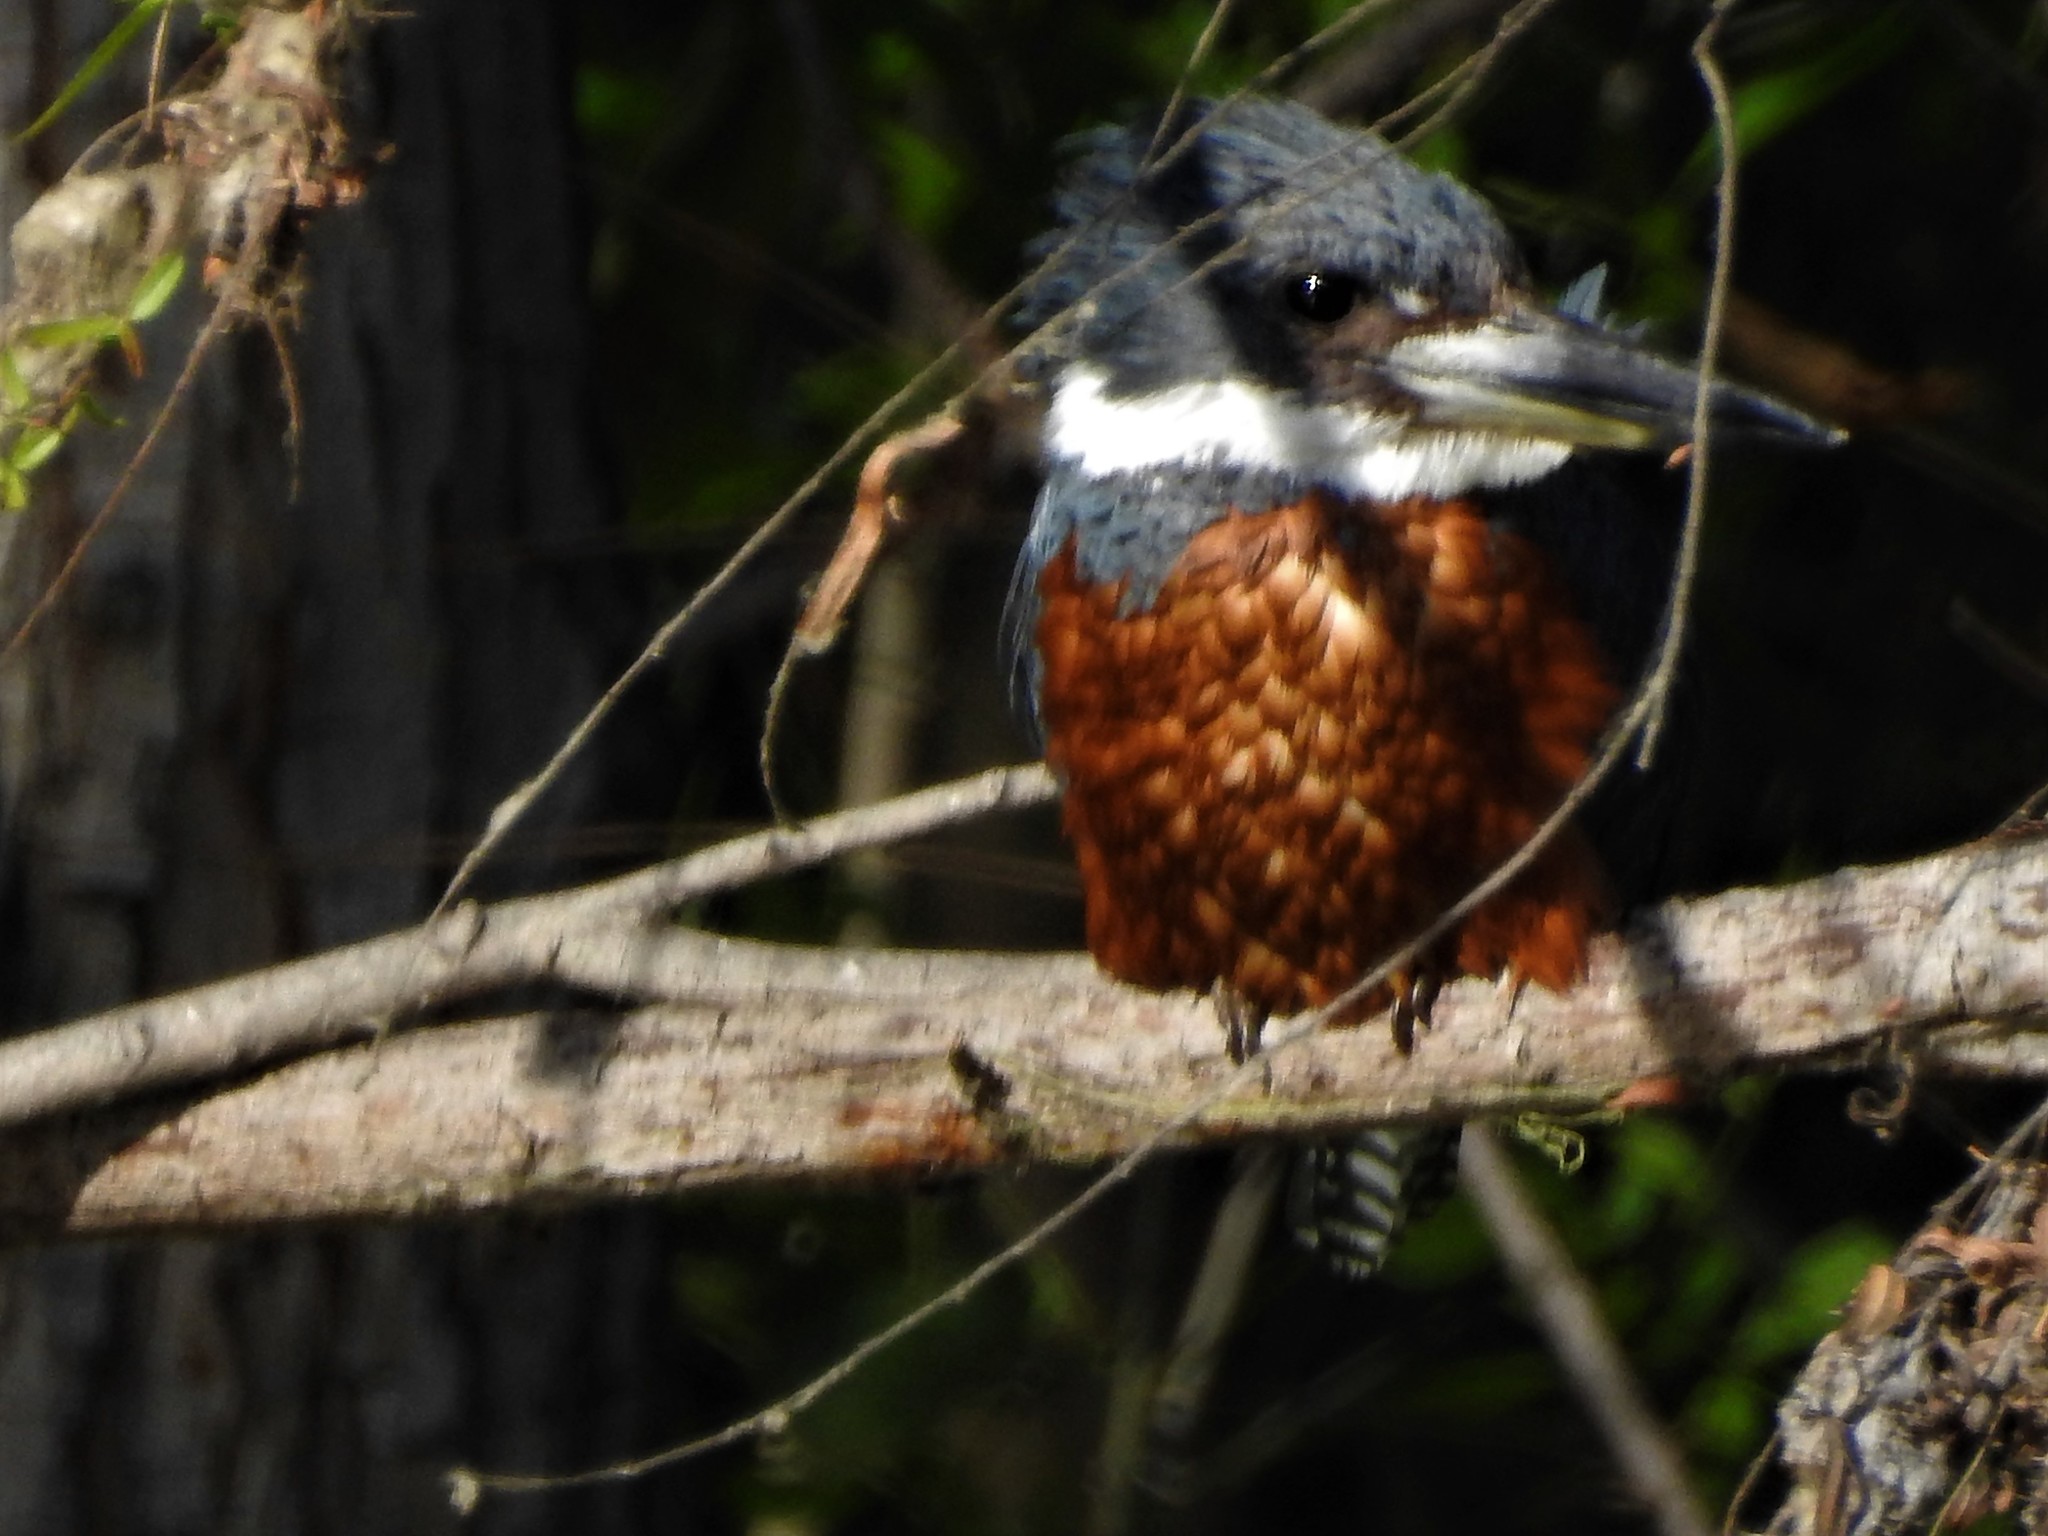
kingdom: Animalia
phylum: Chordata
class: Aves
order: Coraciiformes
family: Alcedinidae
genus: Megaceryle
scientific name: Megaceryle torquata
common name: Ringed kingfisher
